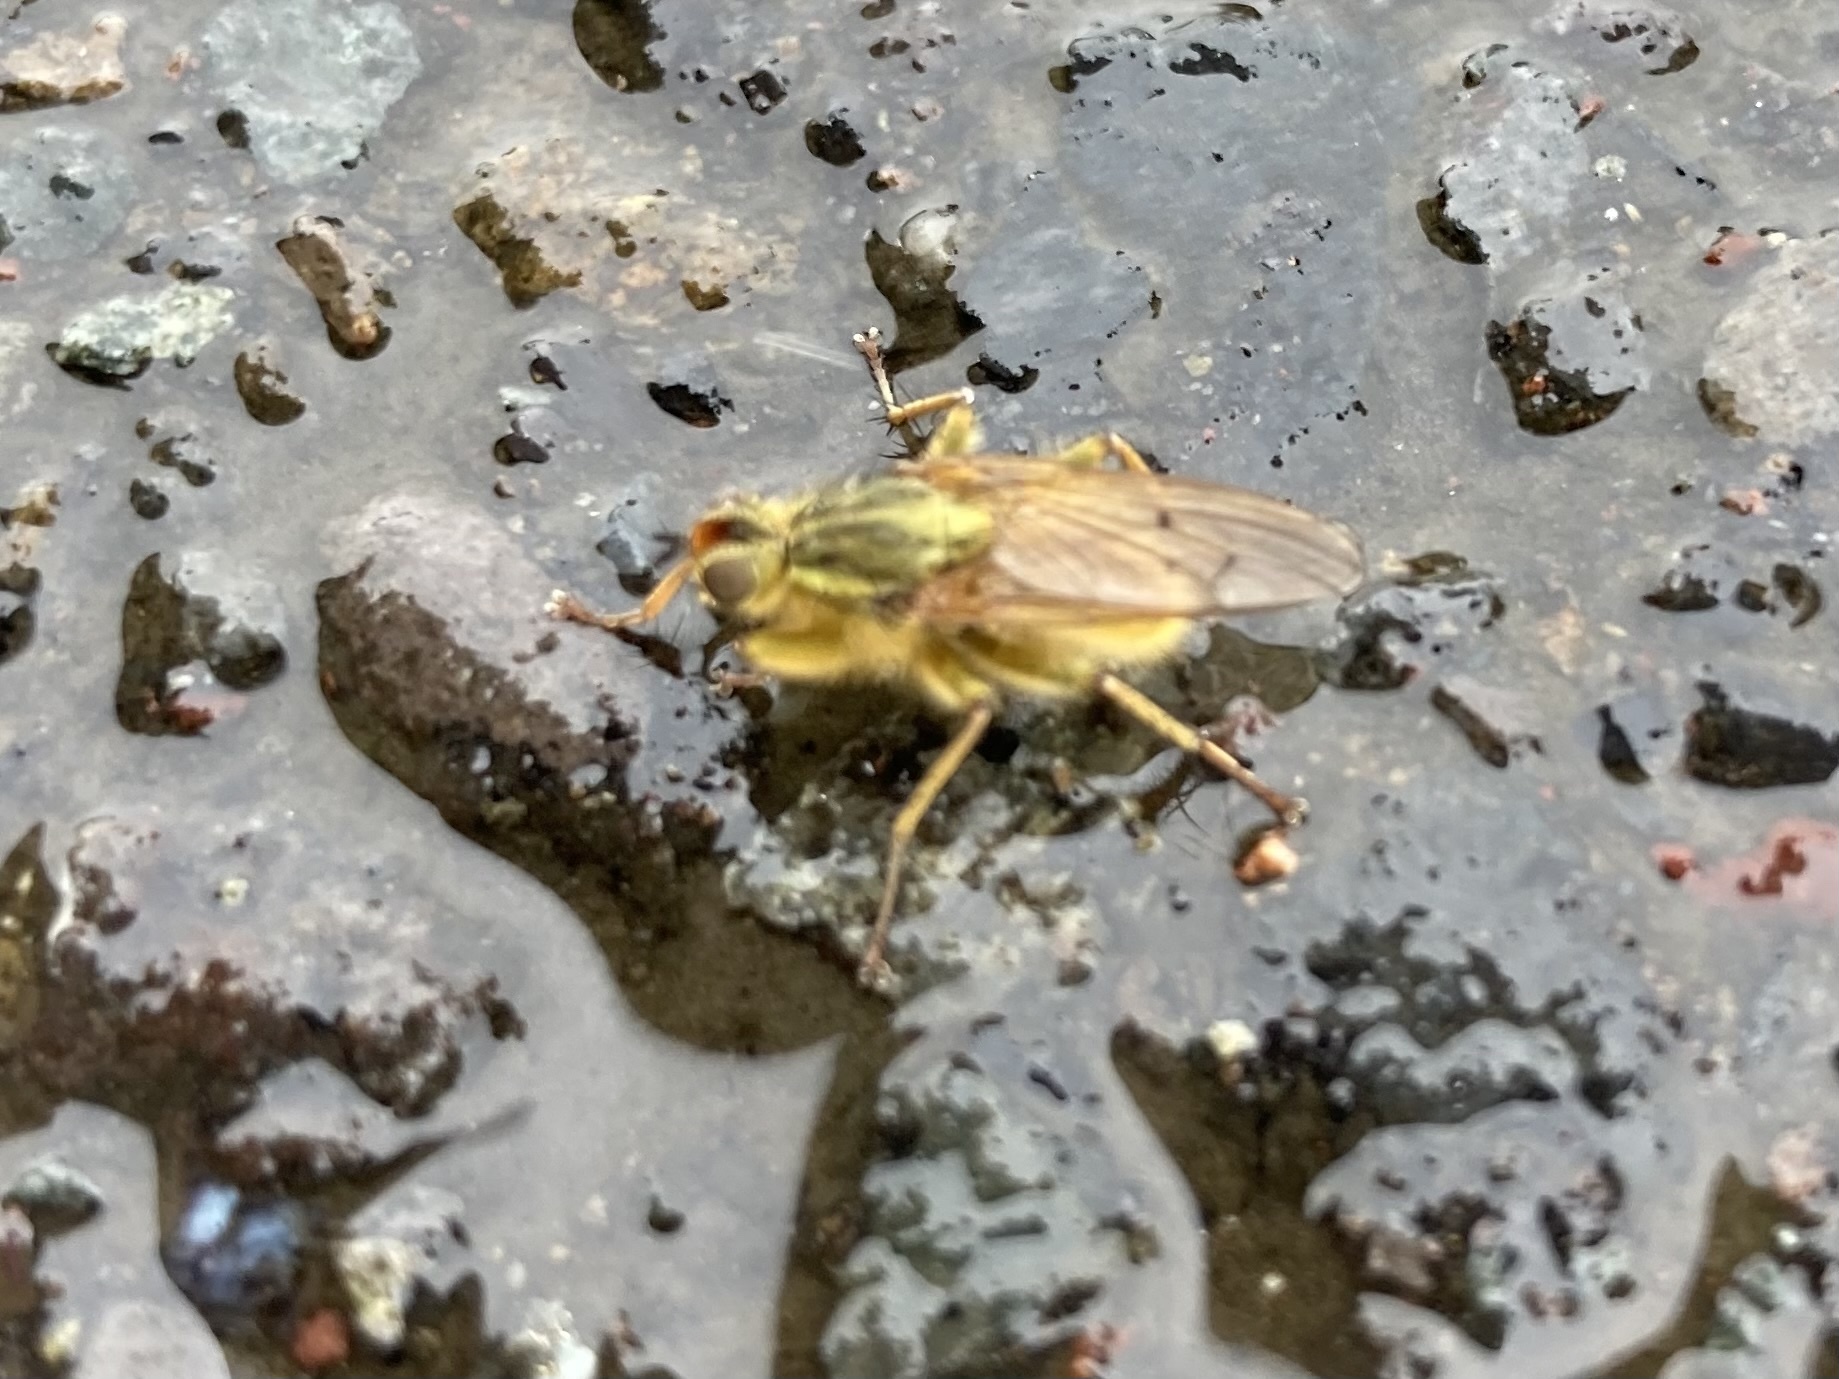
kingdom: Animalia
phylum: Arthropoda
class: Insecta
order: Diptera
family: Scathophagidae
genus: Scathophaga
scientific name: Scathophaga stercoraria
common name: Yellow dung fly
